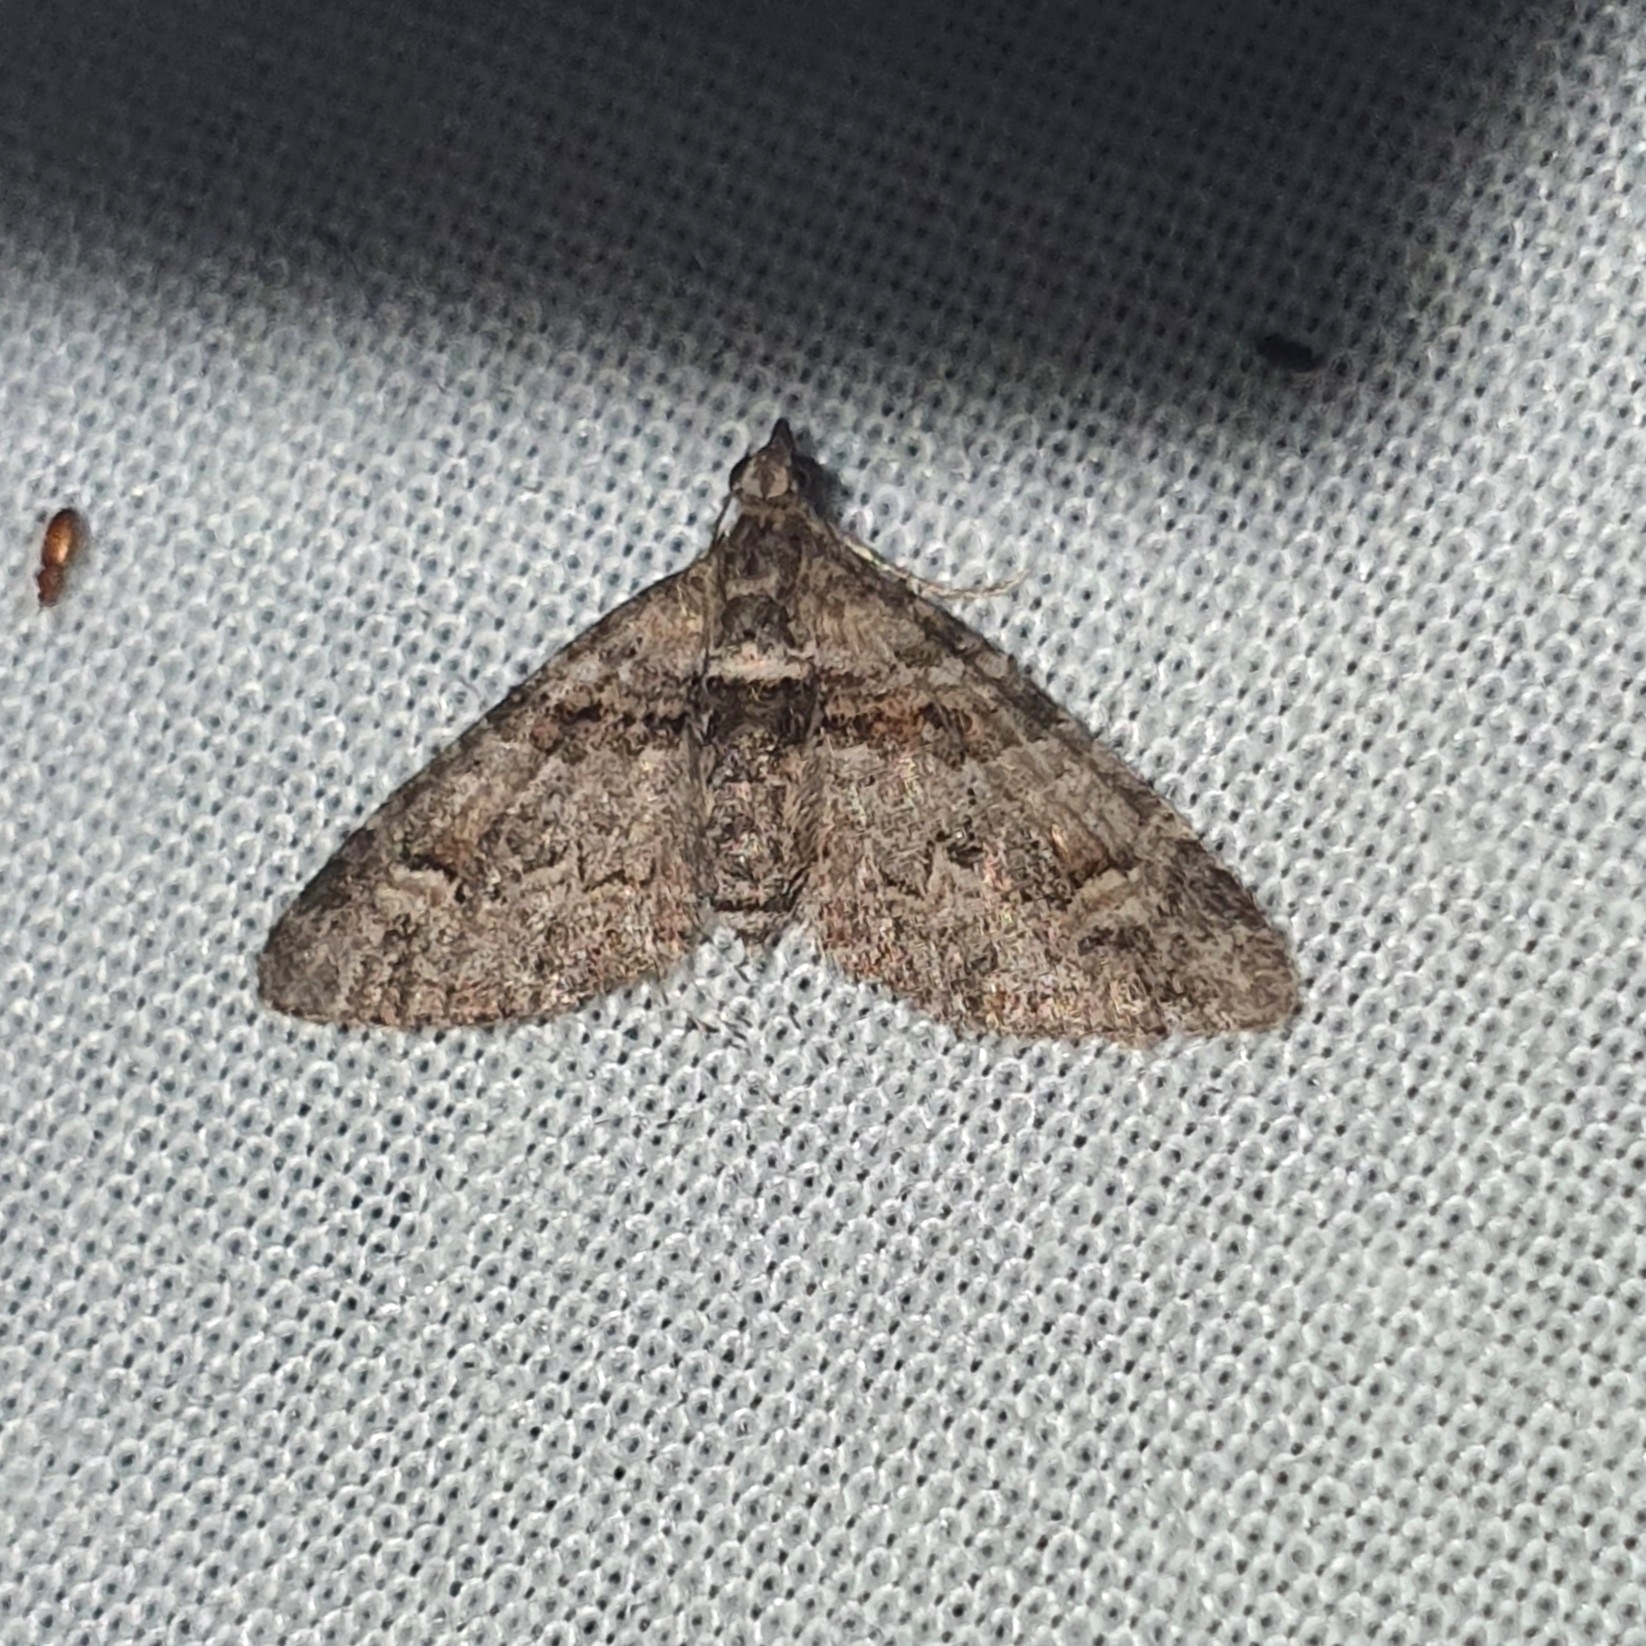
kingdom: Animalia
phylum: Arthropoda
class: Insecta
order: Lepidoptera
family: Geometridae
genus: Phrissogonus
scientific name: Phrissogonus laticostata
